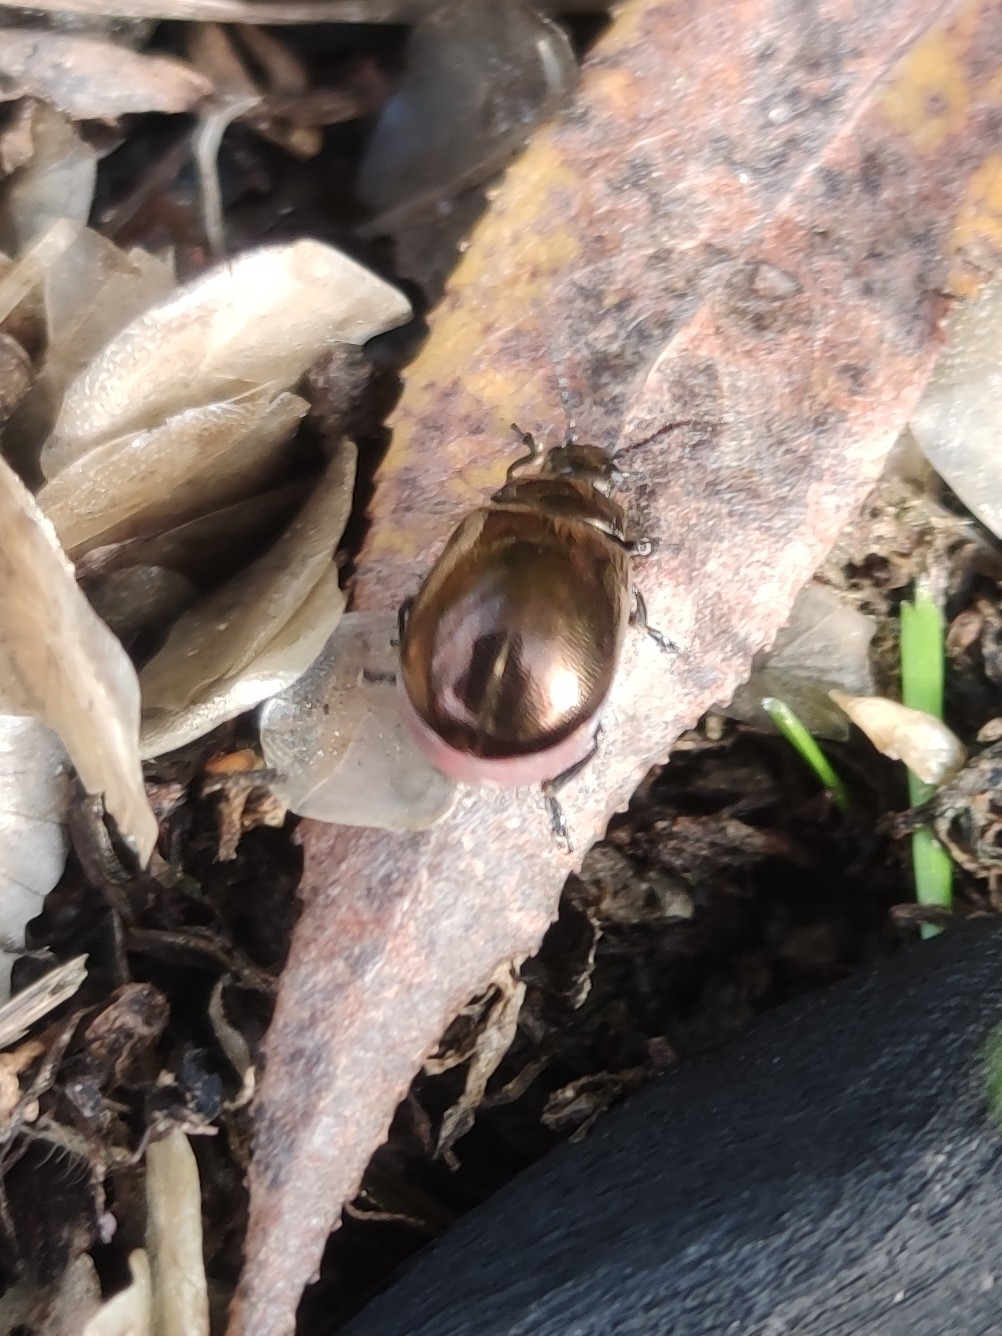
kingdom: Animalia
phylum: Arthropoda
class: Insecta
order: Coleoptera
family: Chrysomelidae
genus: Chrysomela
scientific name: Chrysomela polita
